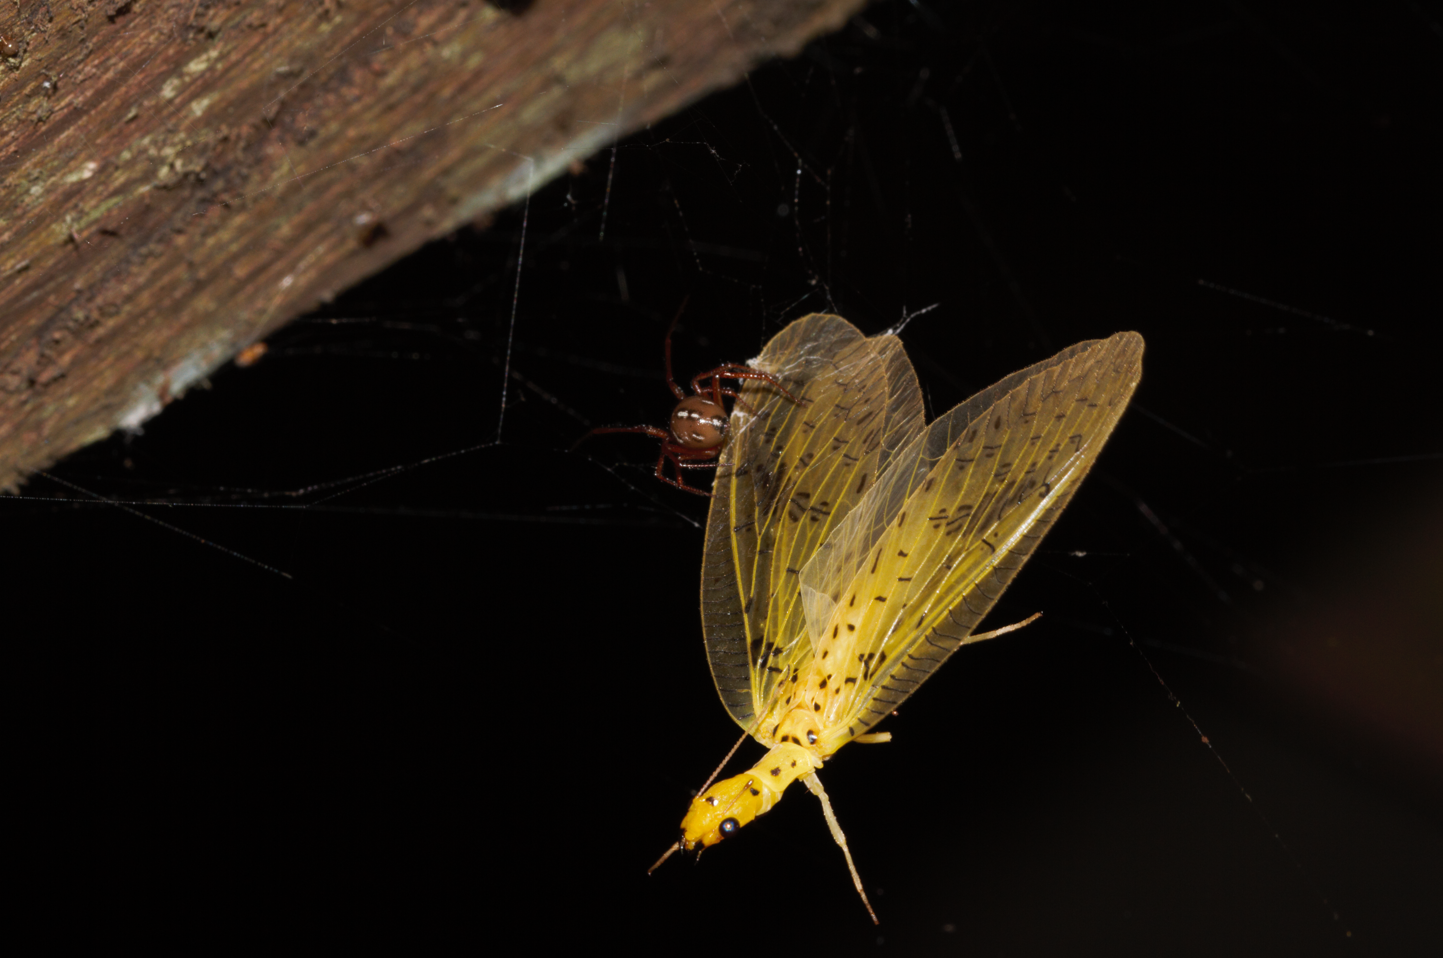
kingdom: Animalia
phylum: Arthropoda
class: Insecta
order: Megaloptera
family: Corydalidae
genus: Chloronia
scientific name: Chloronia hieroglyphica
